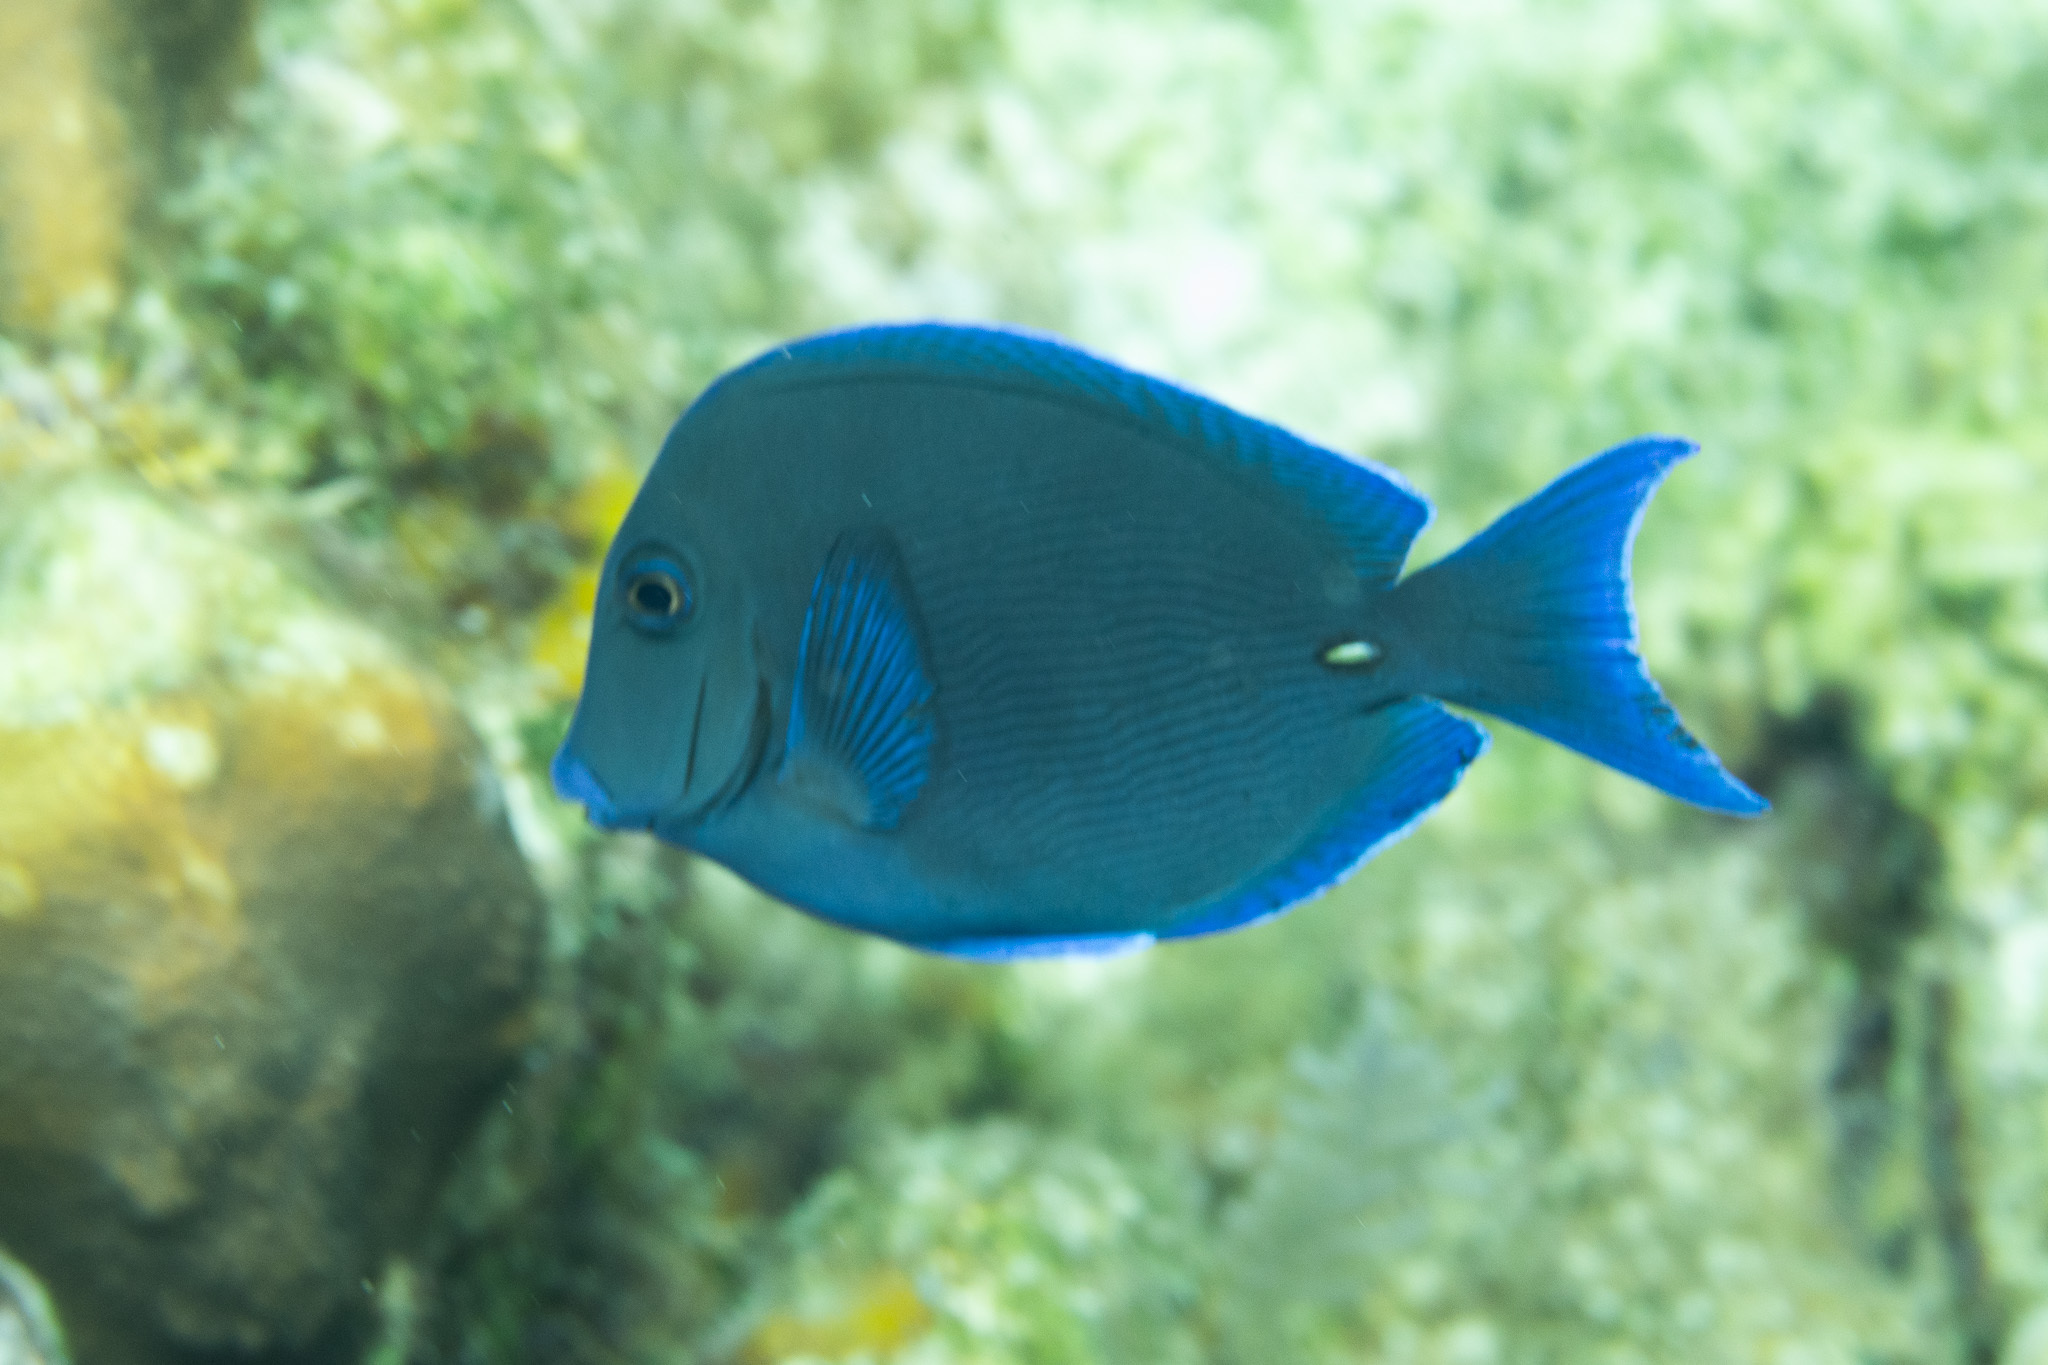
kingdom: Animalia
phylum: Chordata
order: Perciformes
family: Acanthuridae
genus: Acanthurus
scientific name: Acanthurus coeruleus
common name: Blue tang
